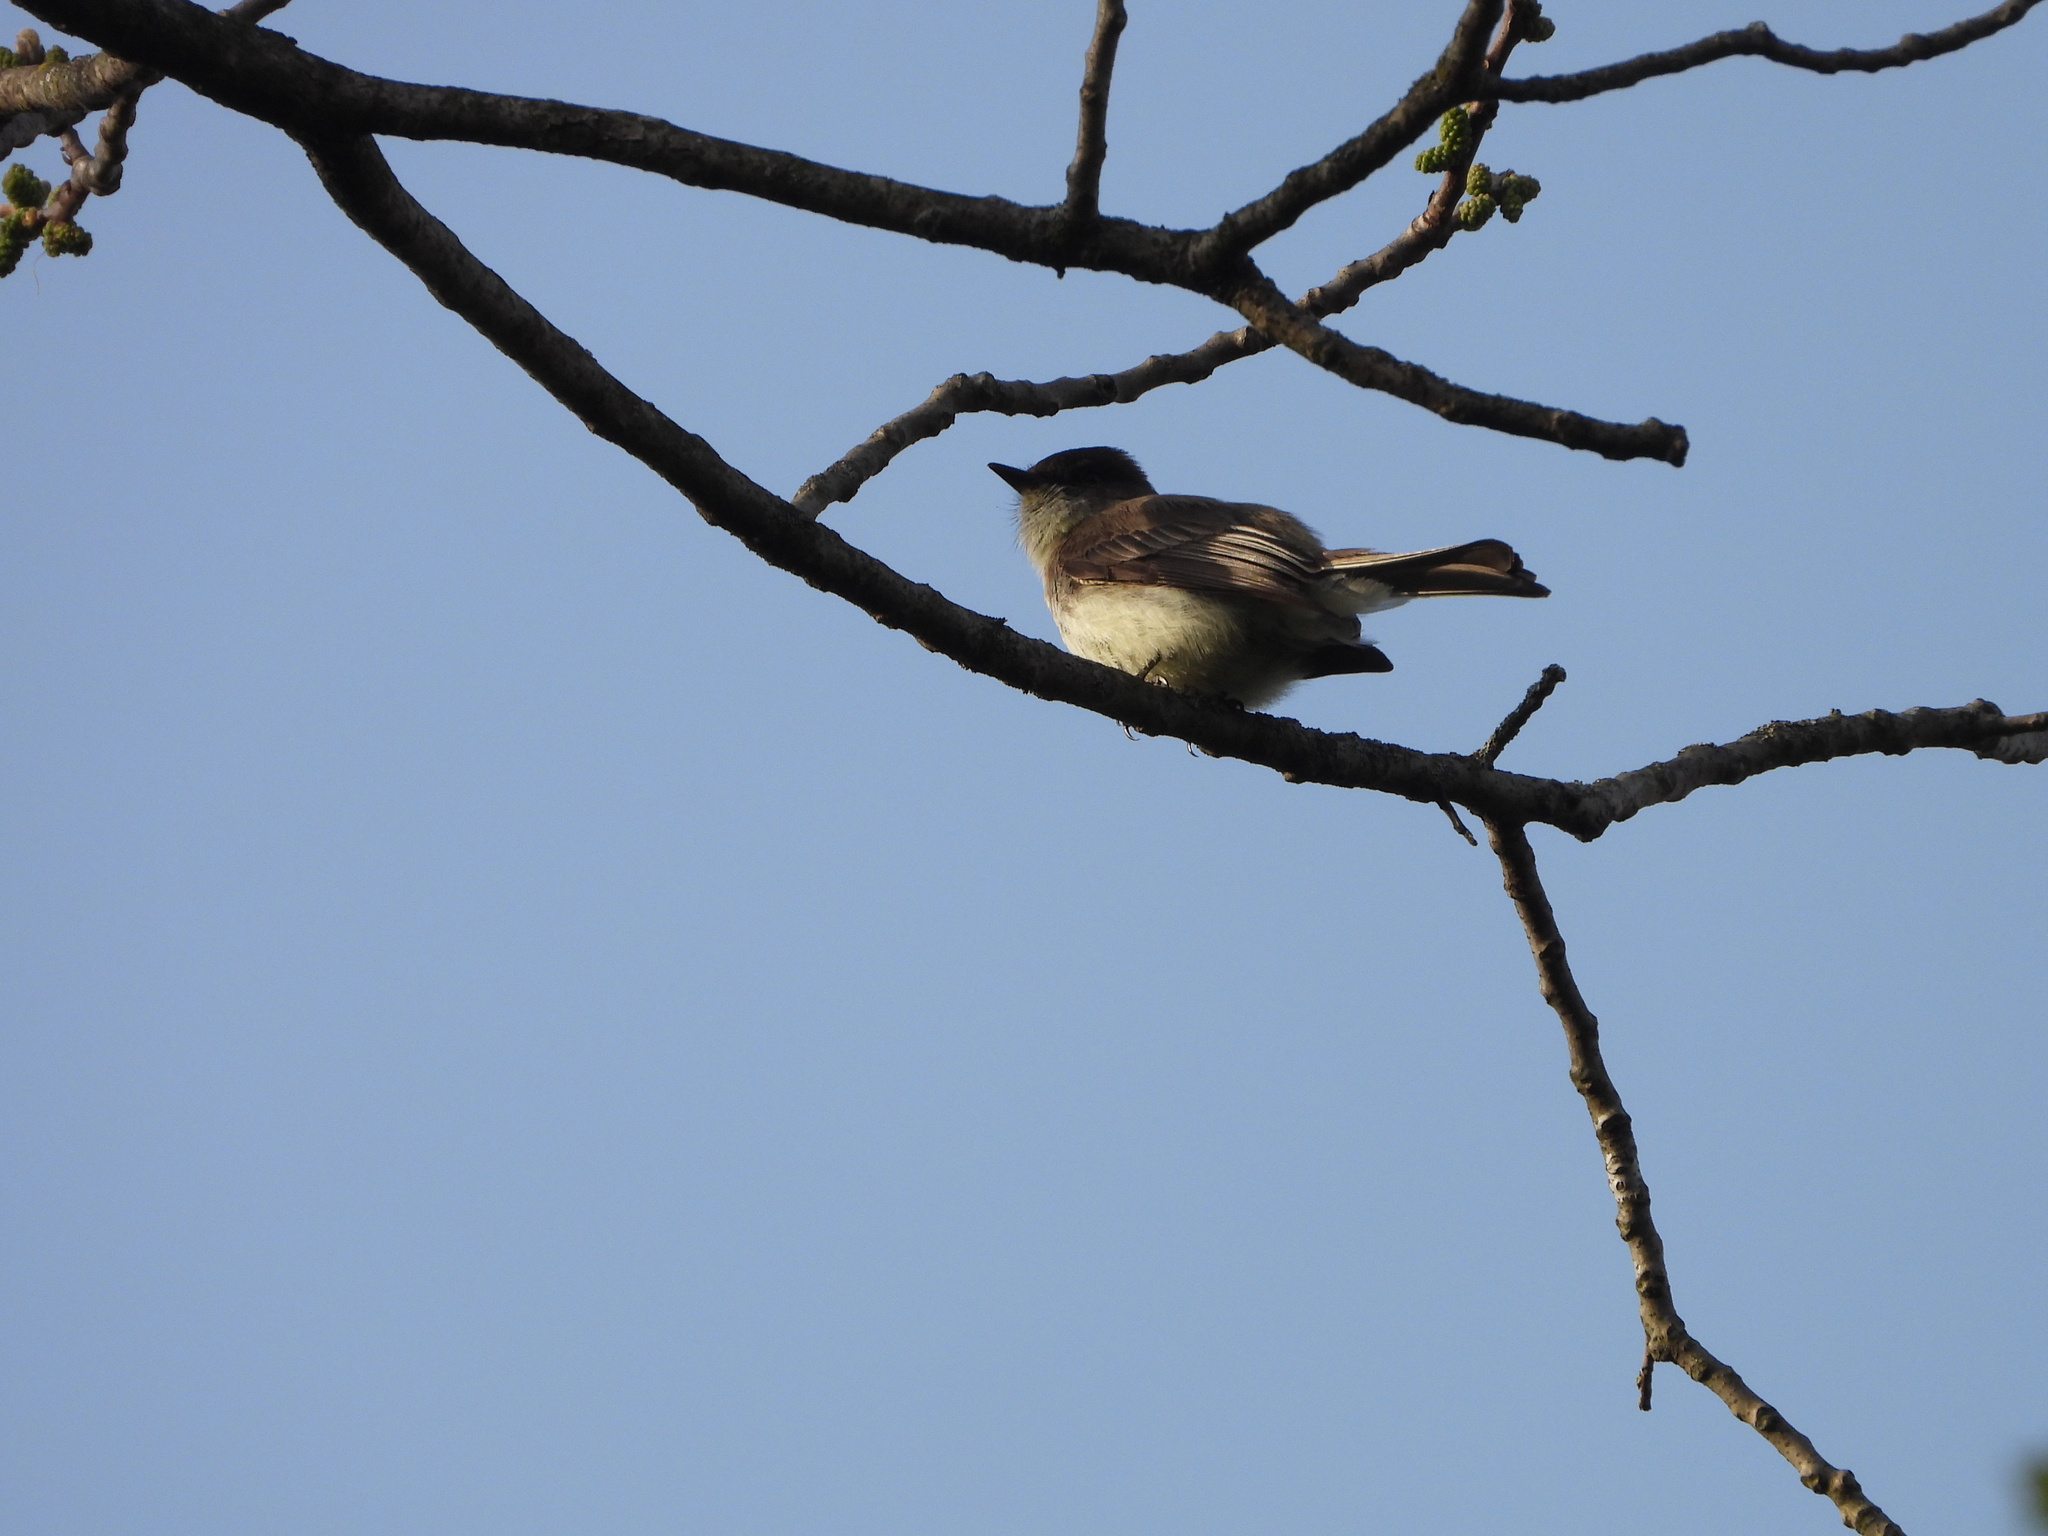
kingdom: Animalia
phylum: Chordata
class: Aves
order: Passeriformes
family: Tyrannidae
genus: Sayornis
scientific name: Sayornis phoebe
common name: Eastern phoebe
